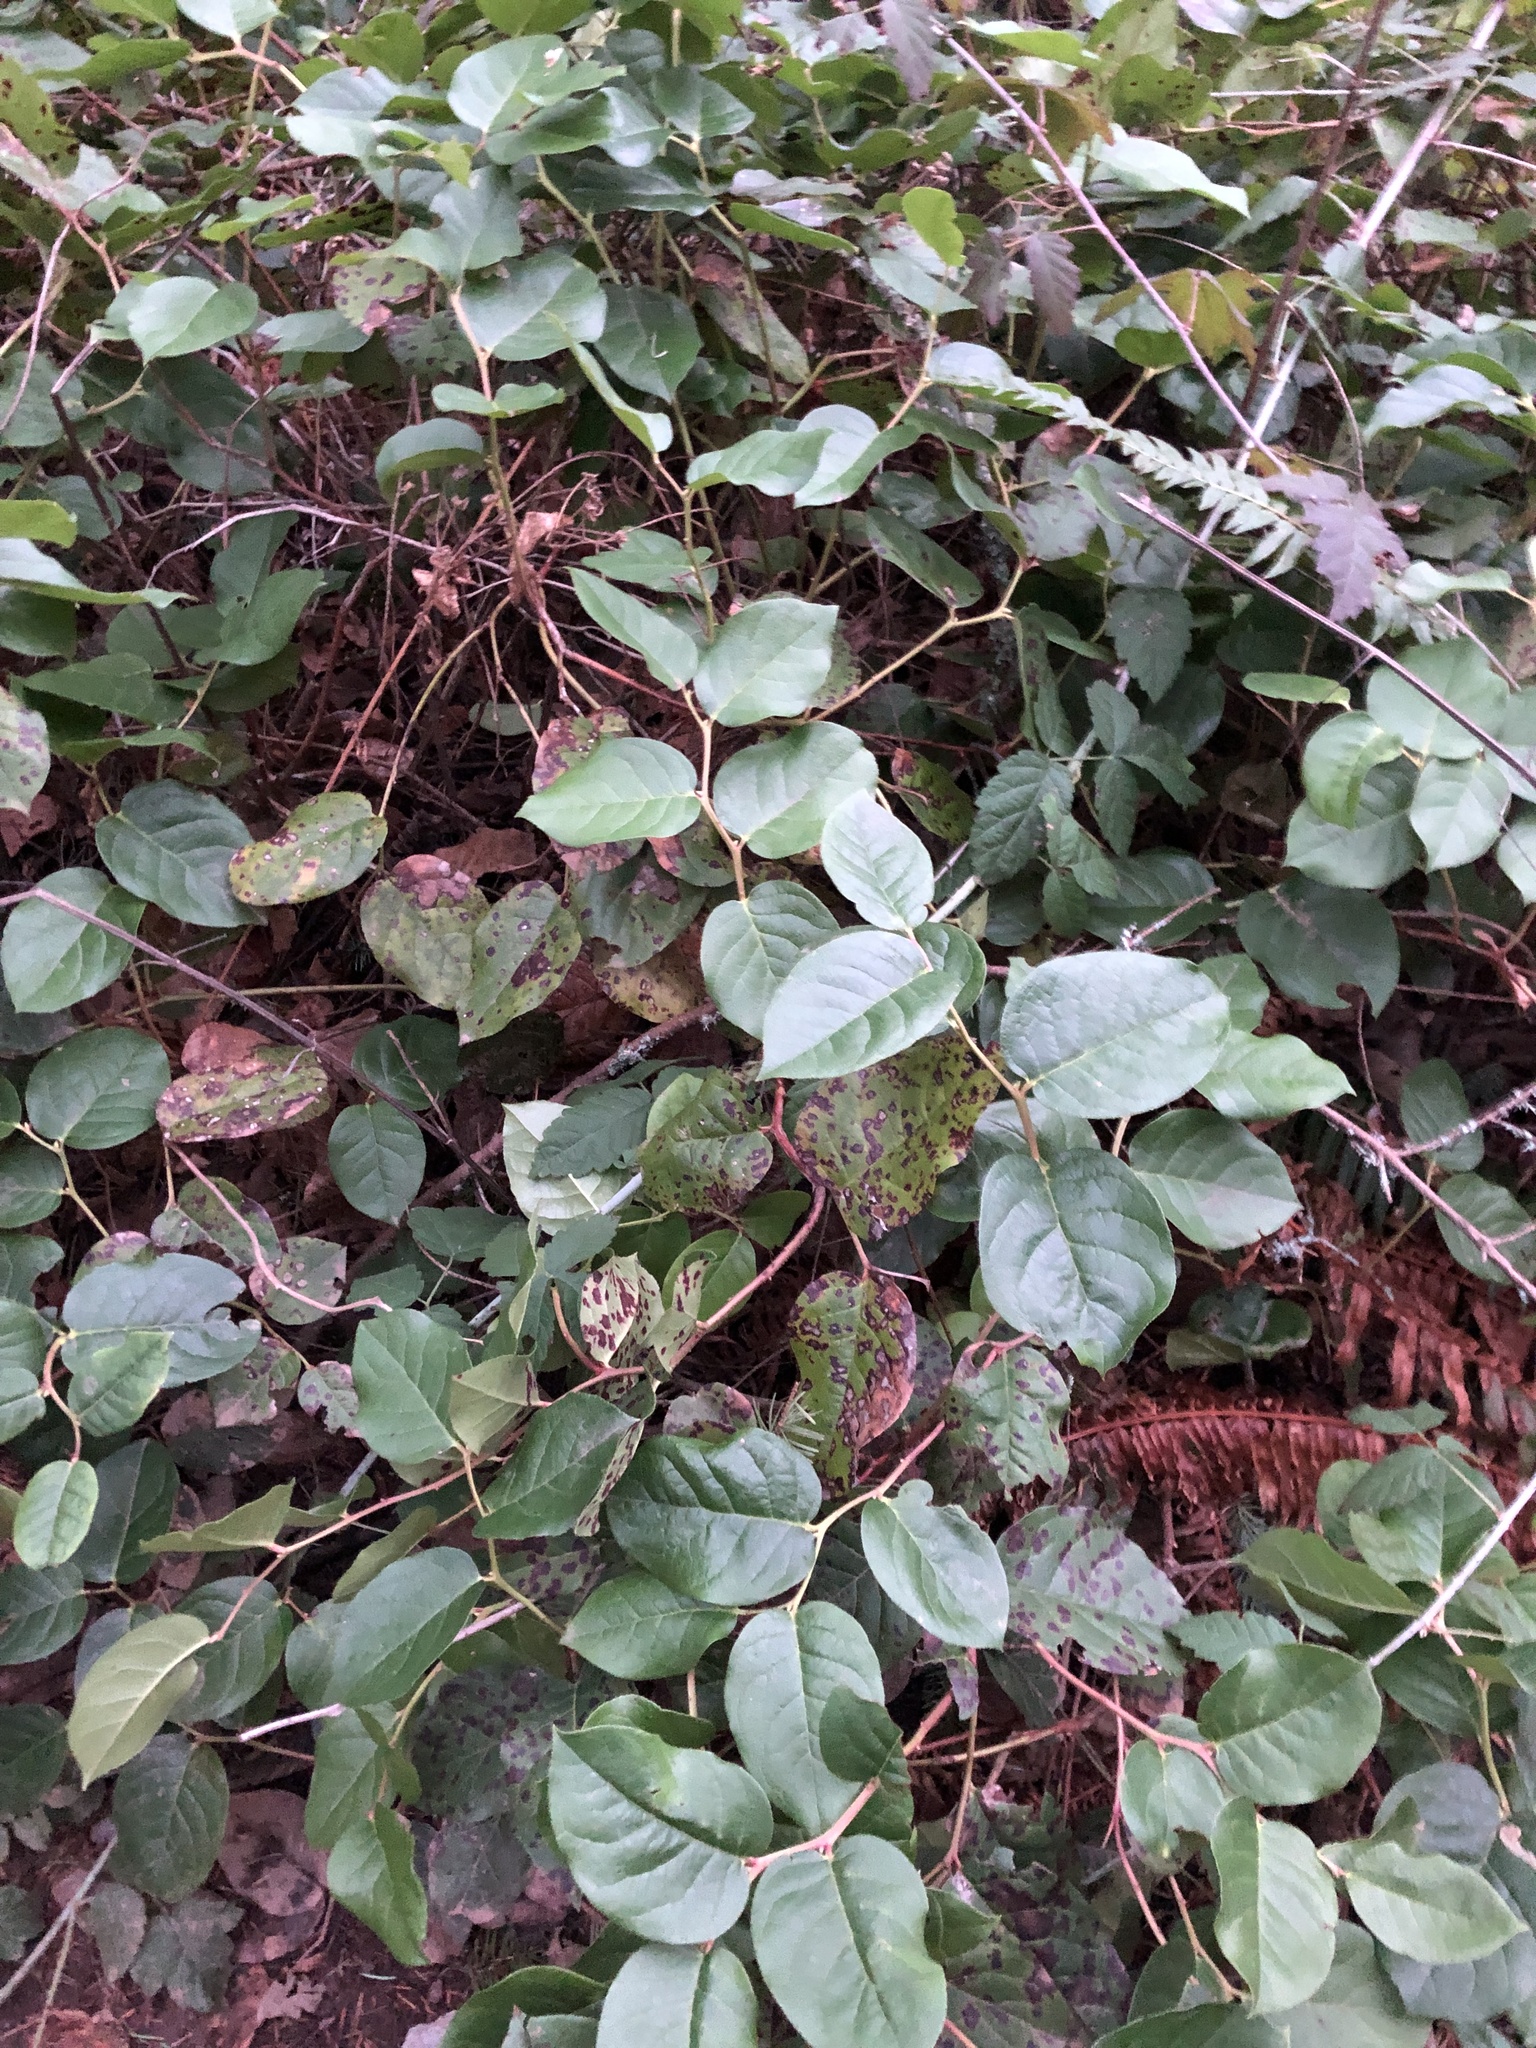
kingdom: Plantae
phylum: Tracheophyta
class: Magnoliopsida
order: Ericales
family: Ericaceae
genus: Gaultheria
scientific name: Gaultheria shallon
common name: Shallon
